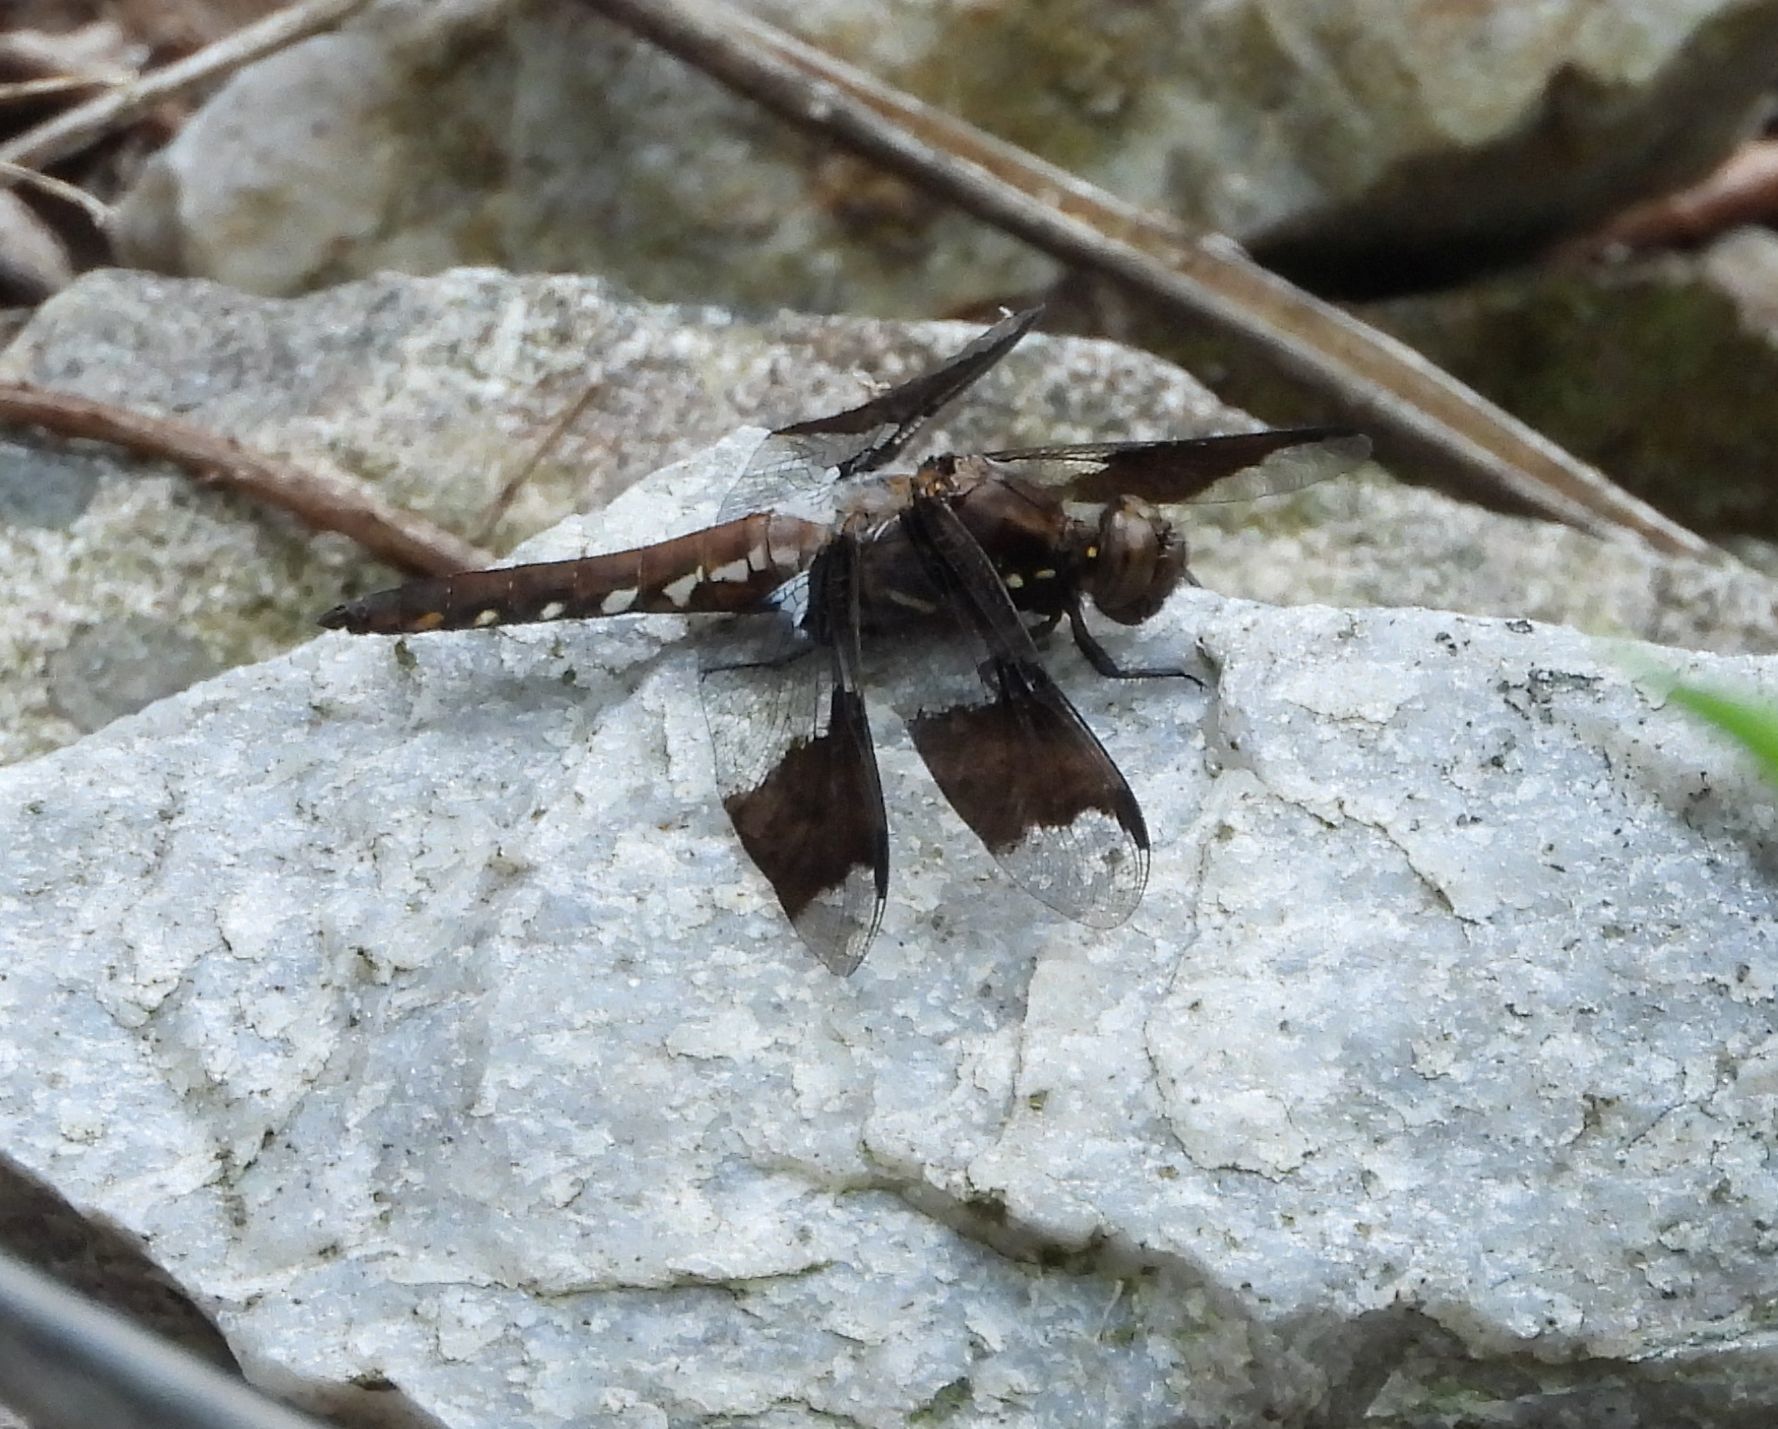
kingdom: Animalia
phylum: Arthropoda
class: Insecta
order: Odonata
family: Libellulidae
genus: Plathemis
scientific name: Plathemis lydia
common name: Common whitetail
